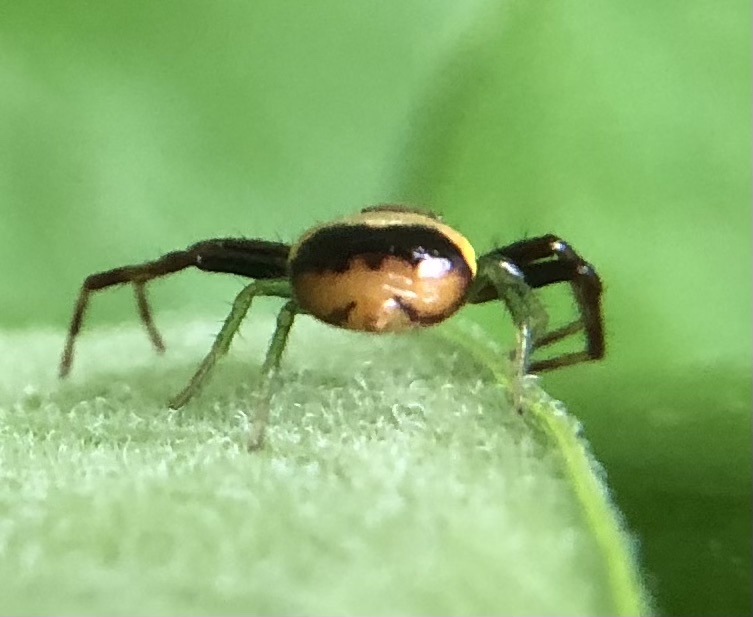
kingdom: Animalia
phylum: Arthropoda
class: Arachnida
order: Araneae
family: Thomisidae
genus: Synema
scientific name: Synema parvulum
